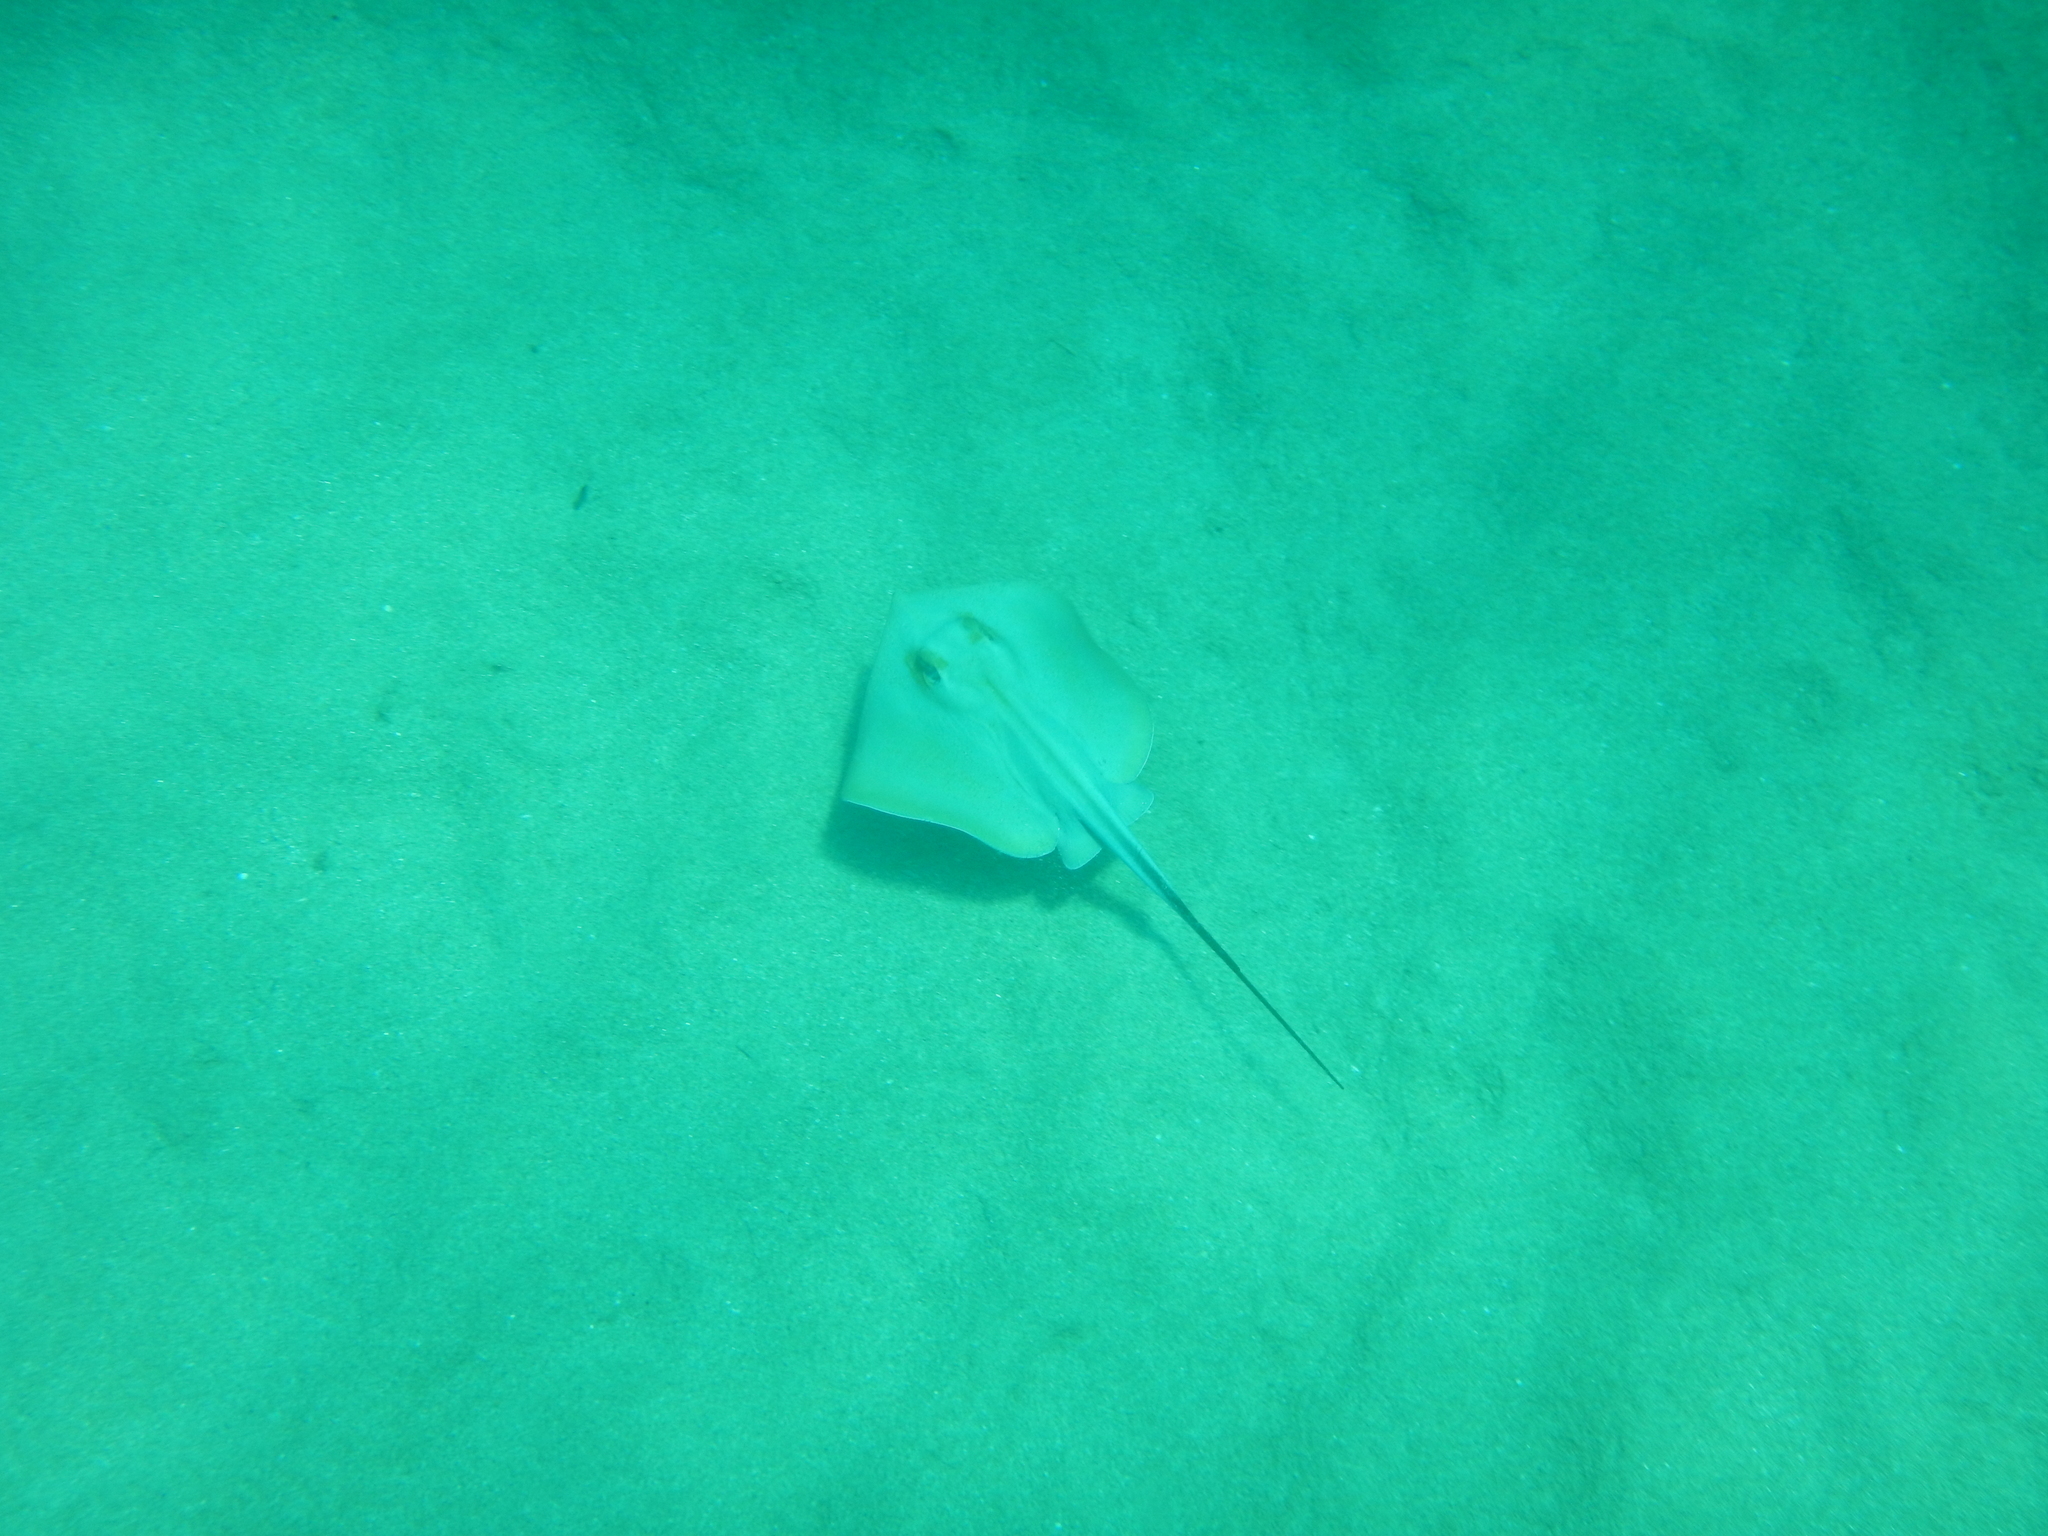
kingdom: Animalia
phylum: Chordata
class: Elasmobranchii
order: Myliobatiformes
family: Dasyatidae
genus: Dasyatis
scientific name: Dasyatis pastinaca
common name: Common stingray
